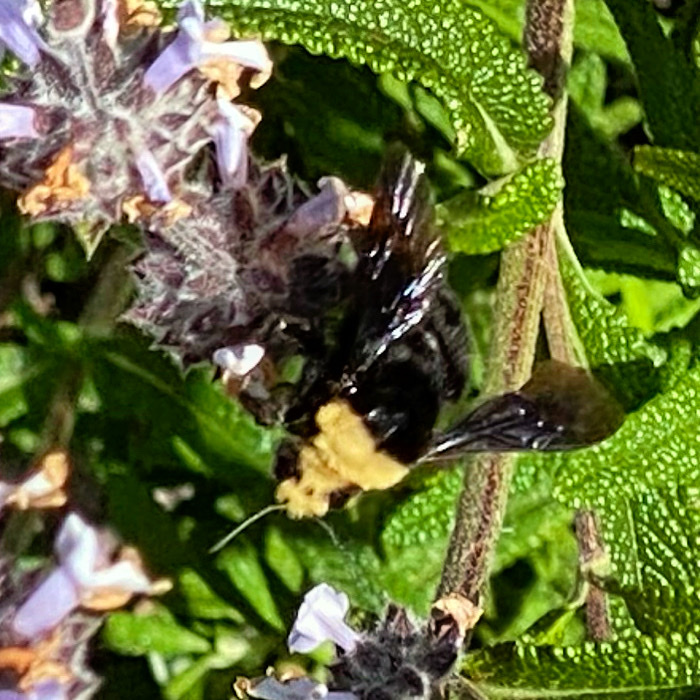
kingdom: Animalia
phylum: Arthropoda
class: Insecta
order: Hymenoptera
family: Apidae
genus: Bombus
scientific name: Bombus vosnesenskii
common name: Vosnesensky bumble bee
